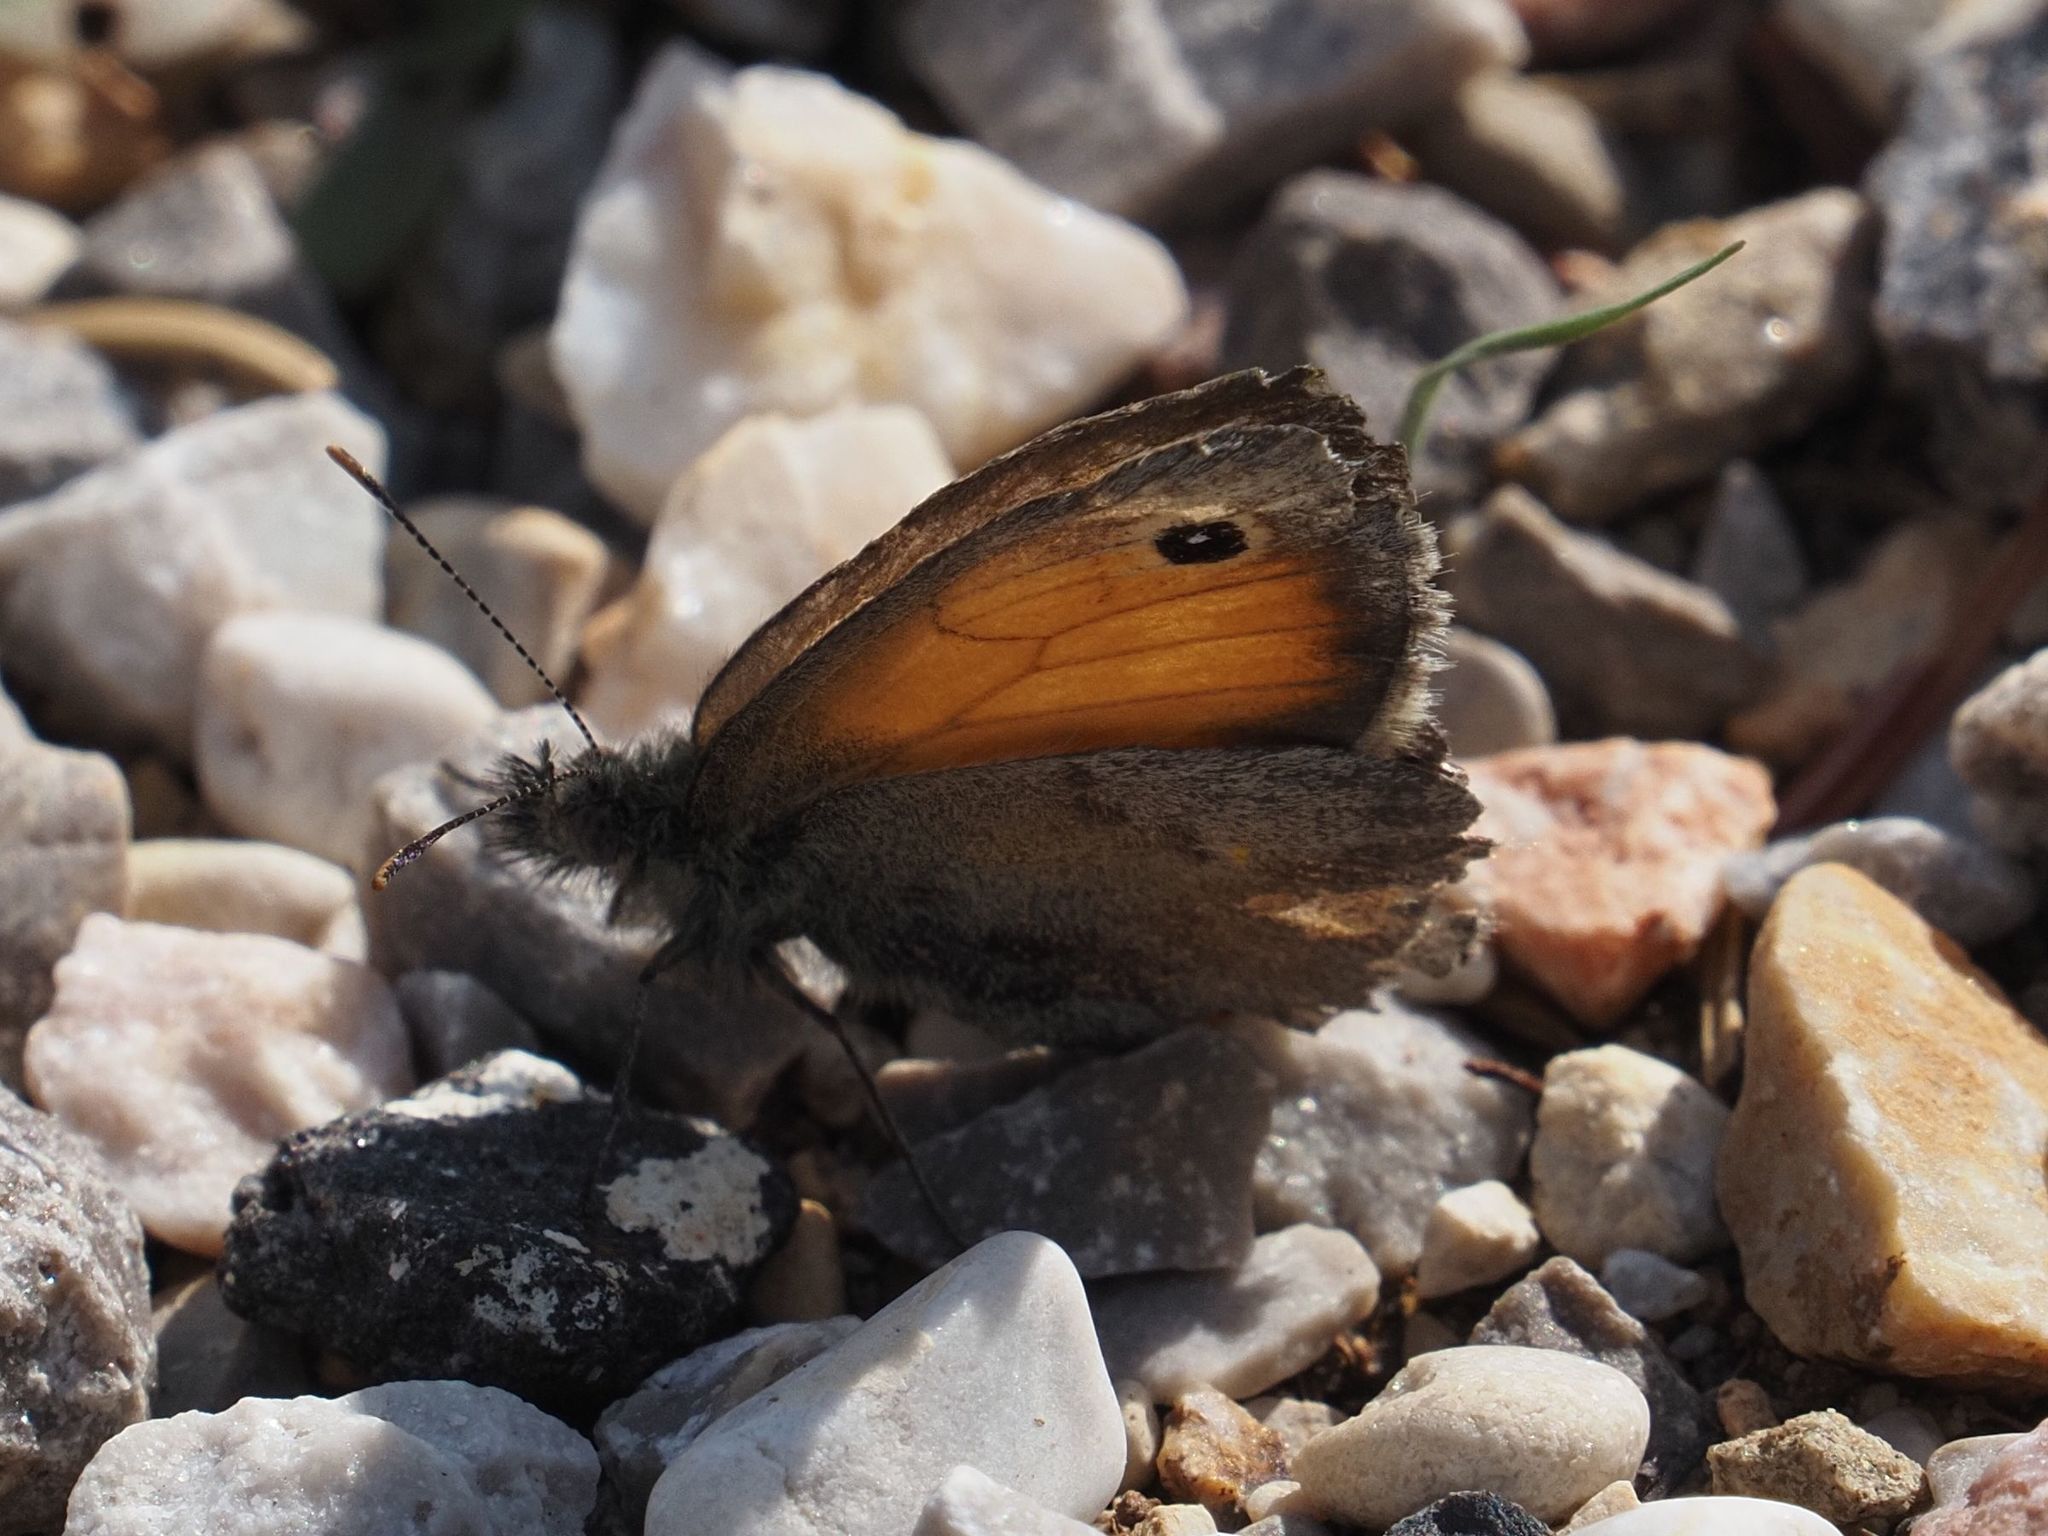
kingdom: Animalia
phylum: Arthropoda
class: Insecta
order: Lepidoptera
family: Nymphalidae
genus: Coenonympha
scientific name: Coenonympha pamphilus
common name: Small heath
